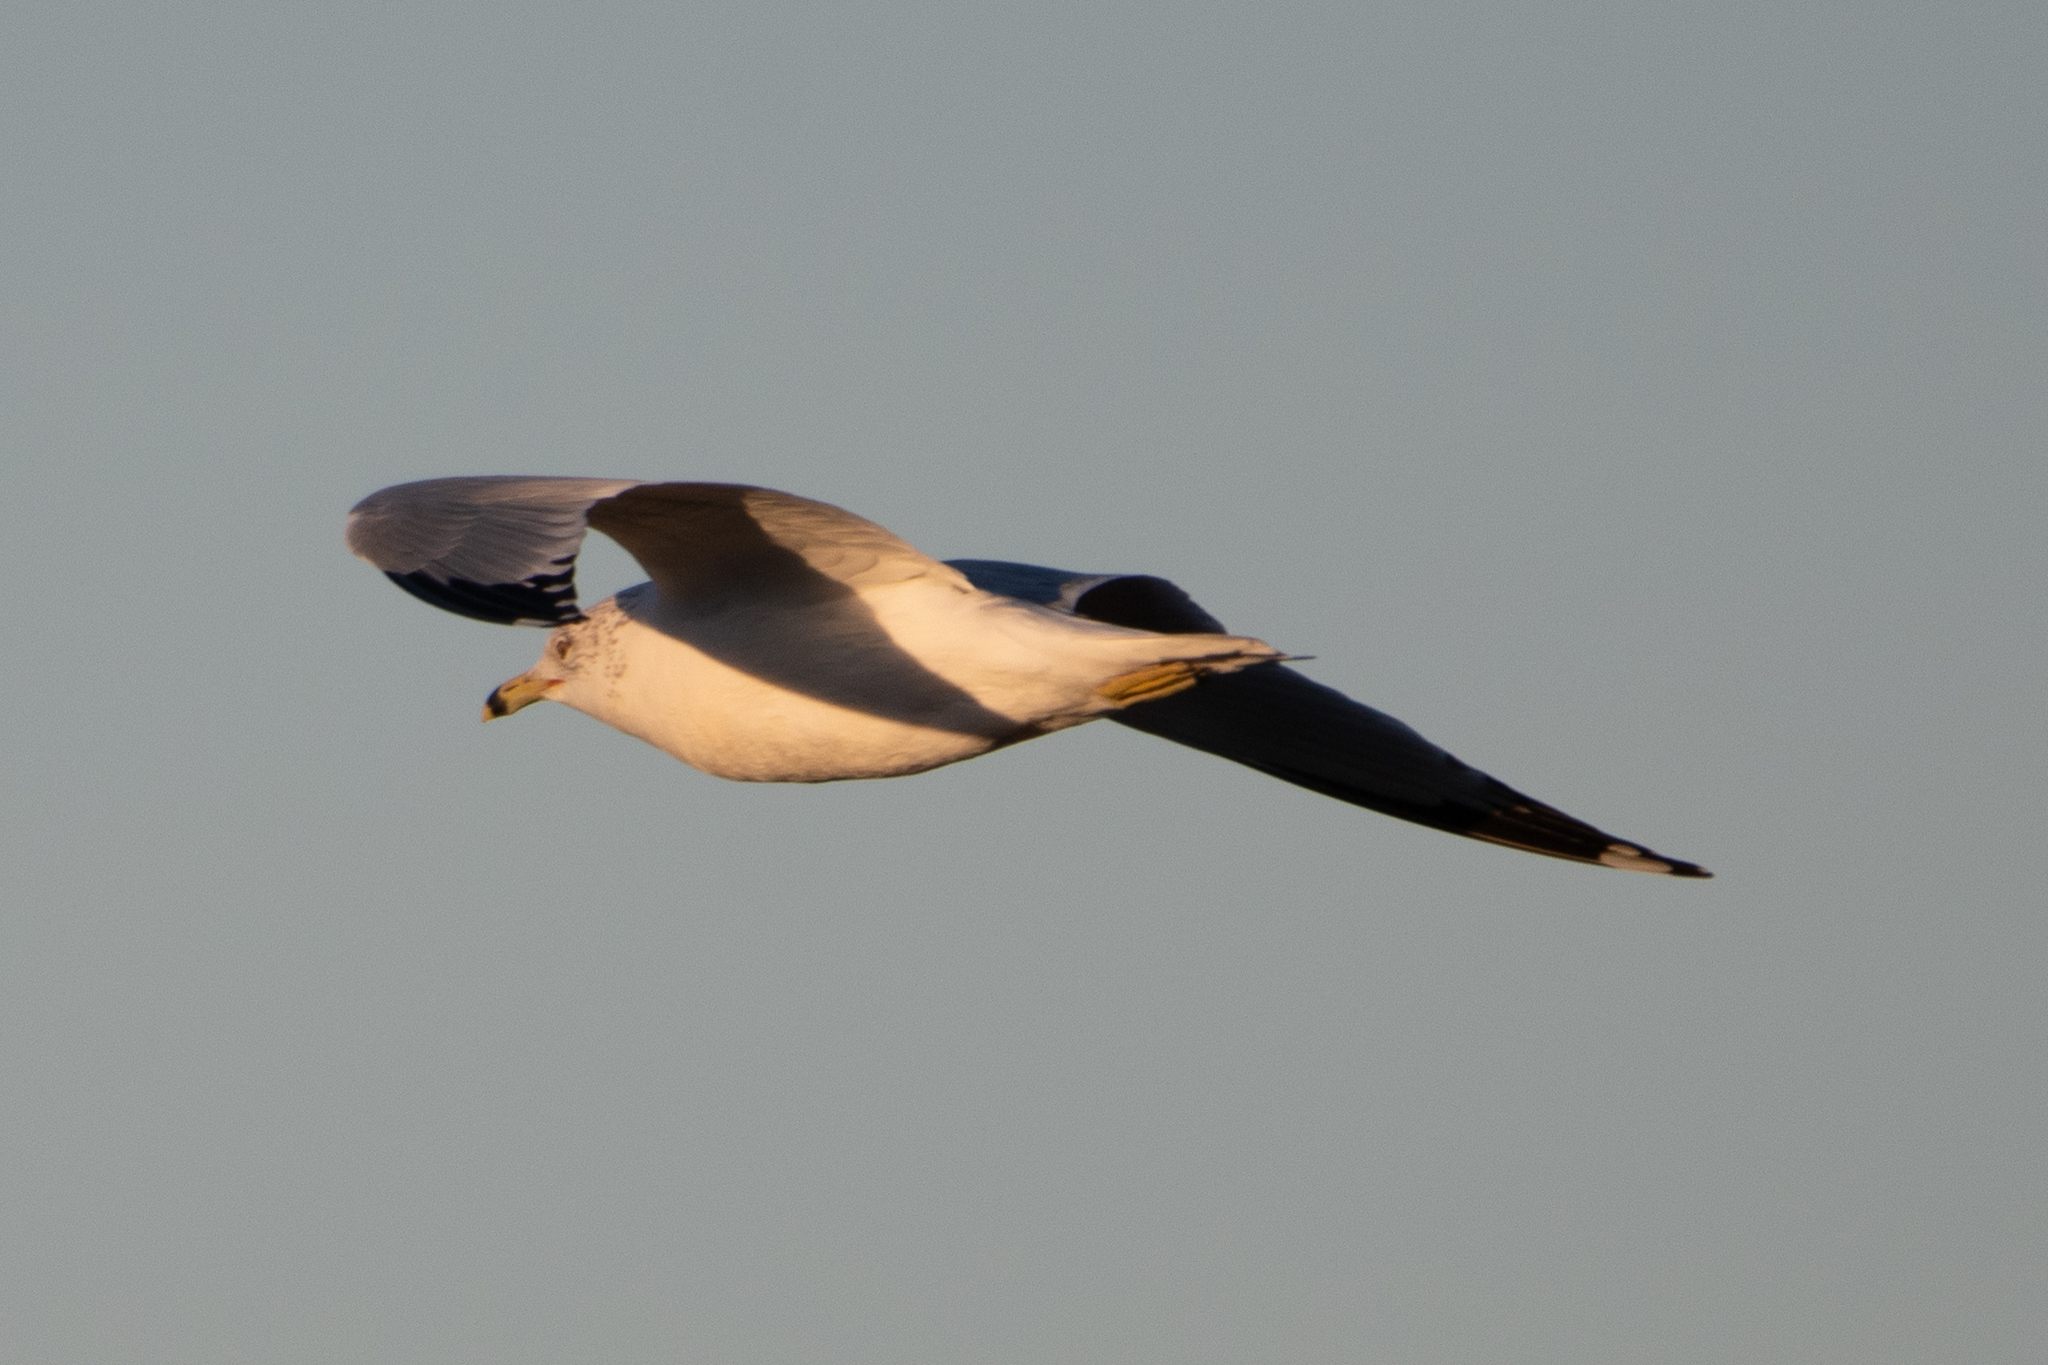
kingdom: Animalia
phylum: Chordata
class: Aves
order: Charadriiformes
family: Laridae
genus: Larus
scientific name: Larus delawarensis
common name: Ring-billed gull
